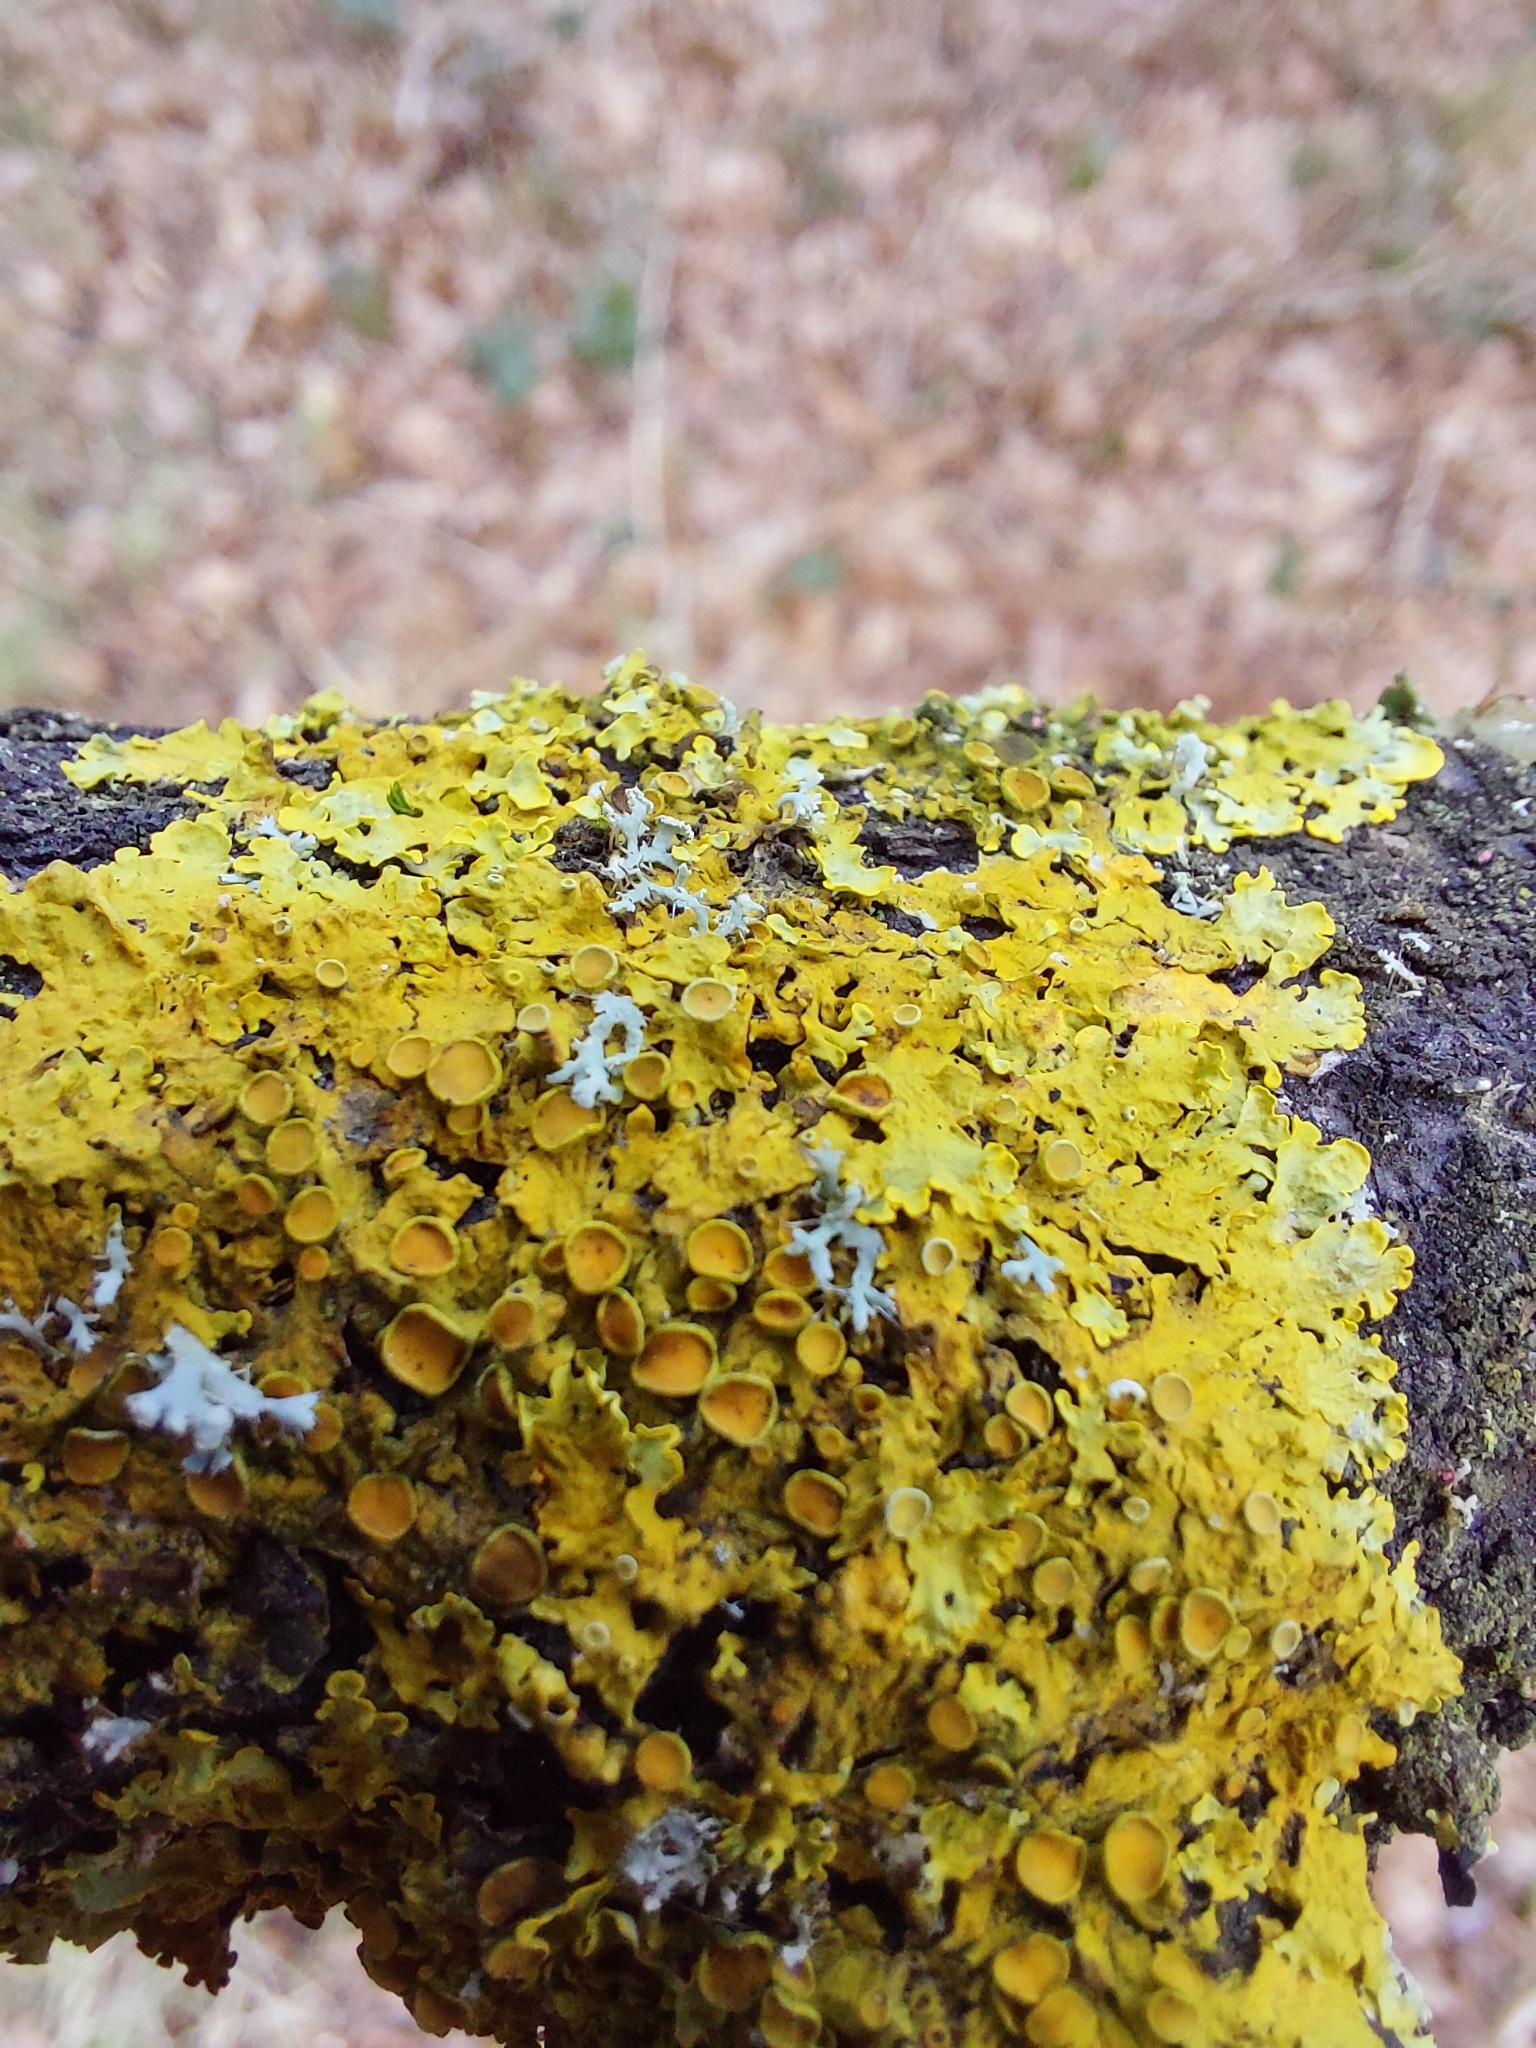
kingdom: Fungi
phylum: Ascomycota
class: Lecanoromycetes
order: Teloschistales
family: Teloschistaceae
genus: Xanthoria
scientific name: Xanthoria parietina
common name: Common orange lichen
